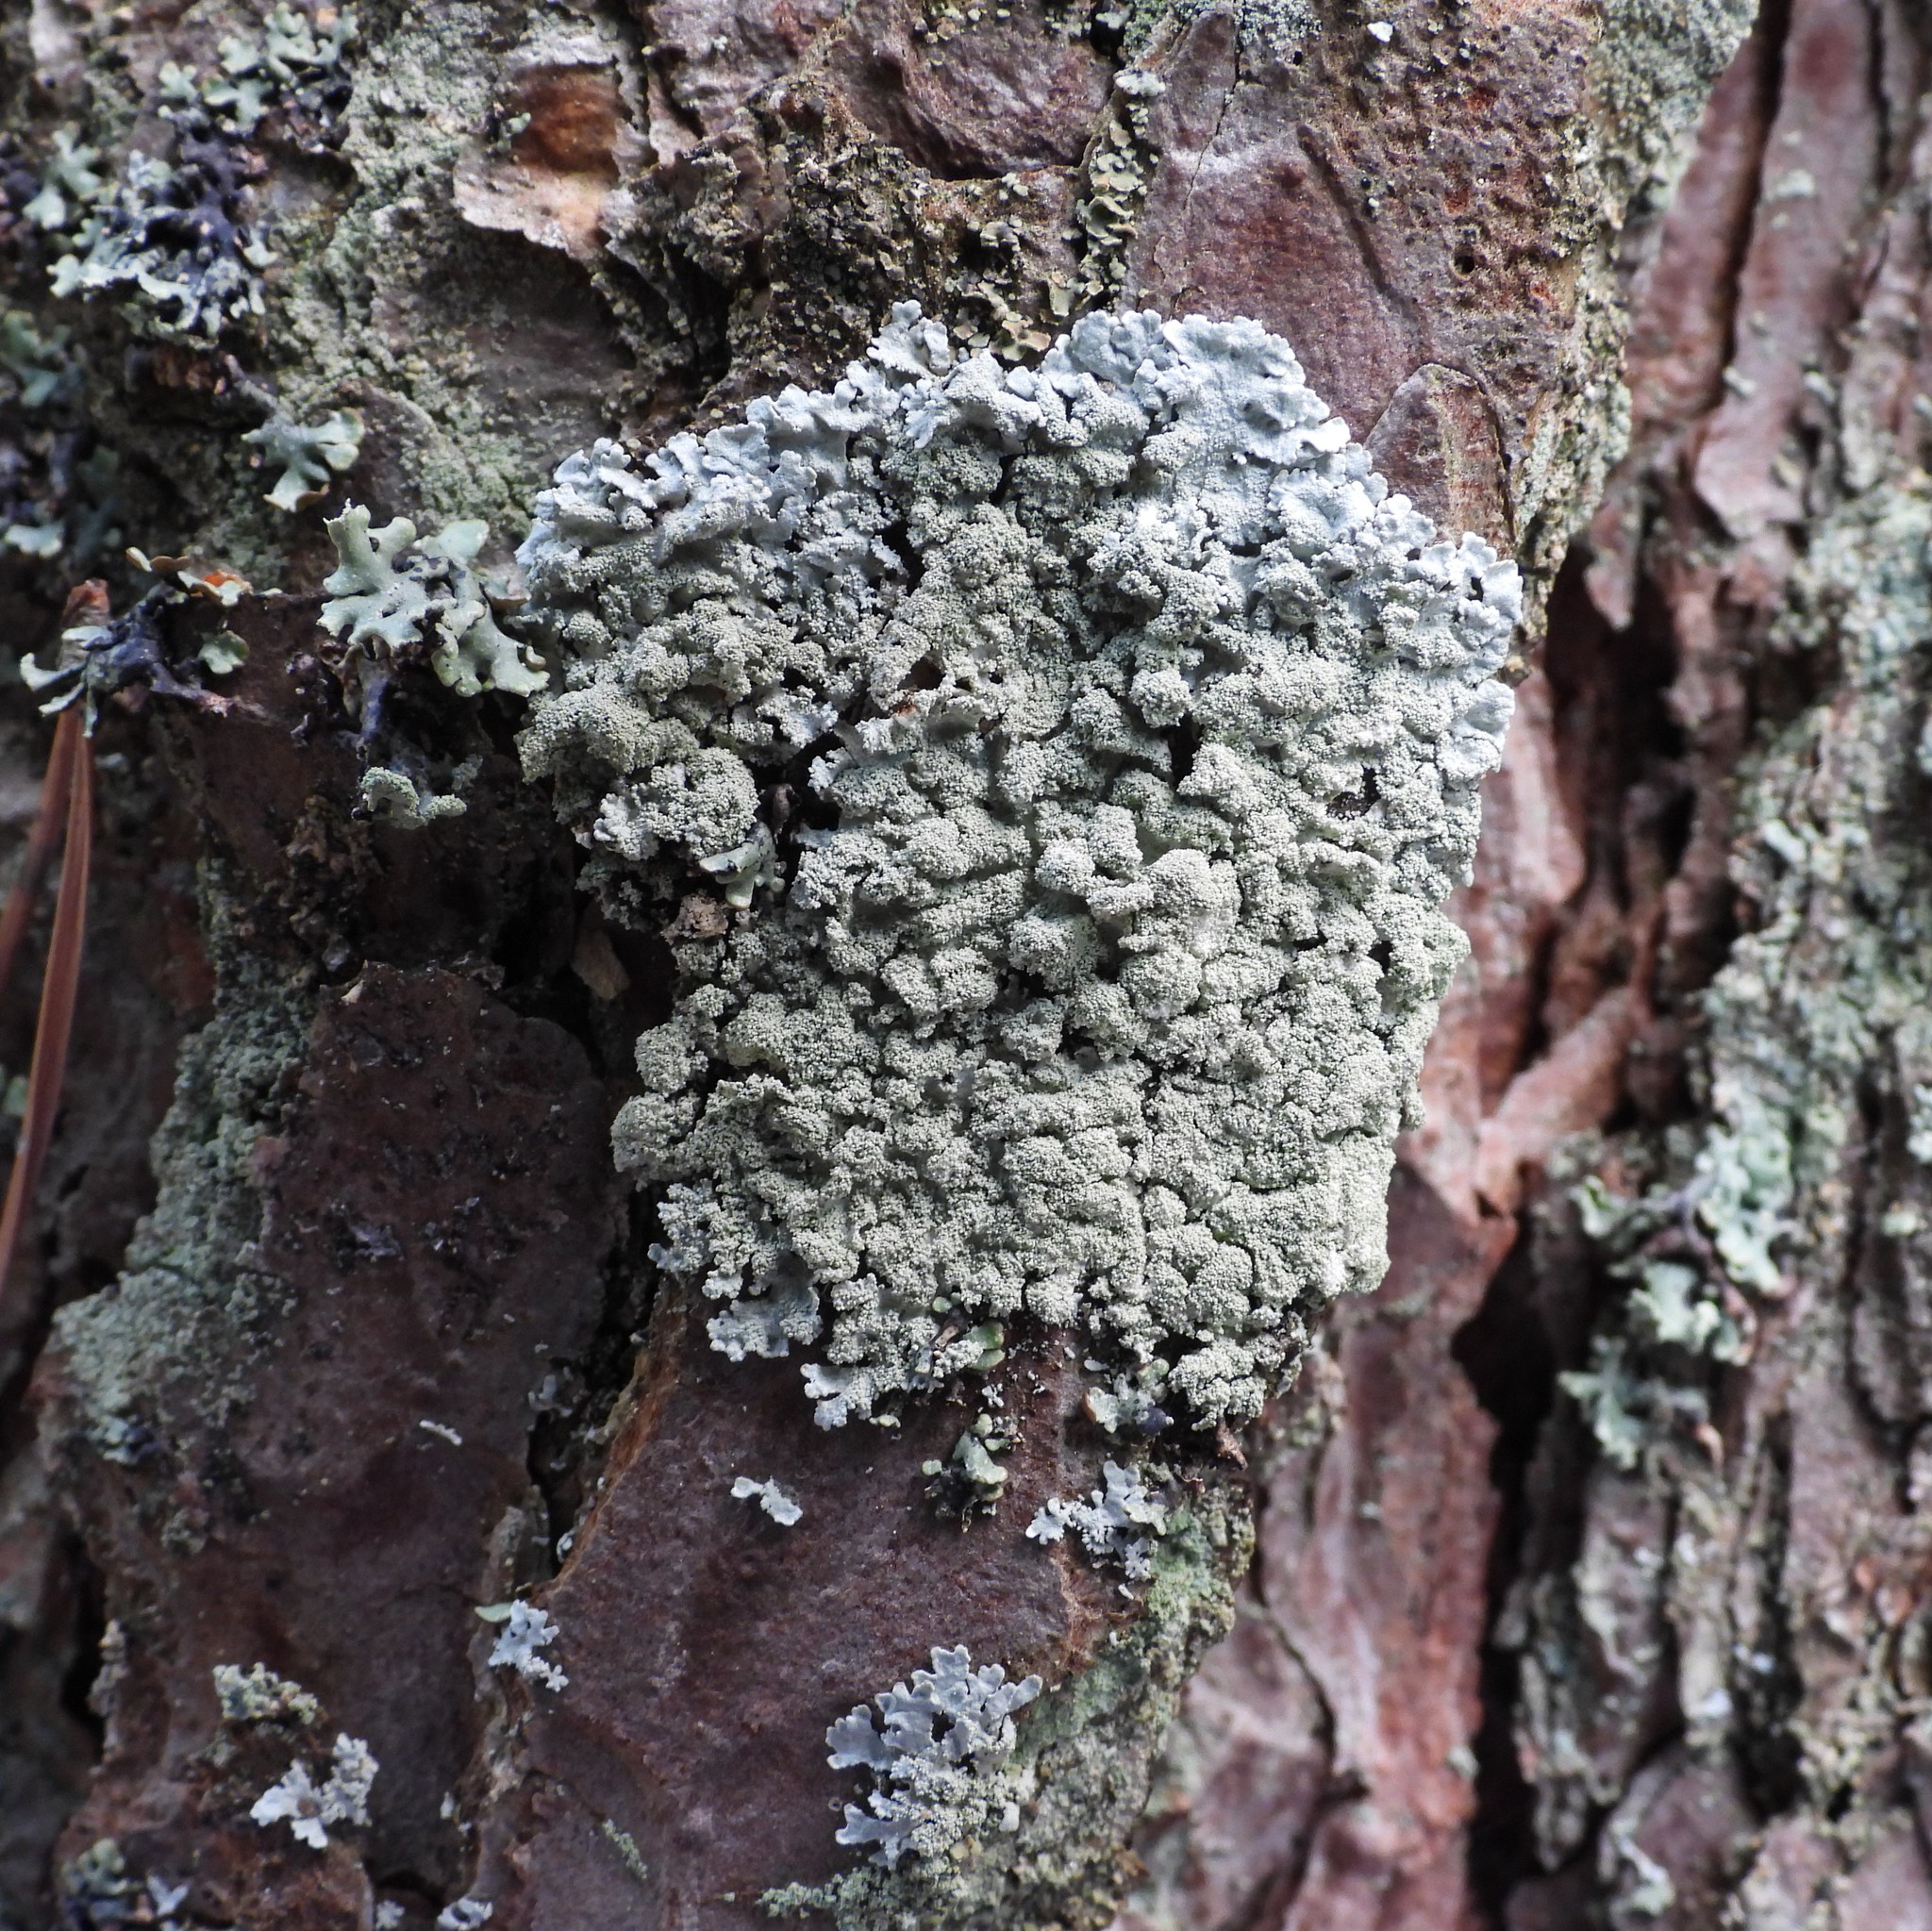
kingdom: Fungi
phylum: Ascomycota
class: Lecanoromycetes
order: Lecanorales
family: Parmeliaceae
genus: Imshaugia
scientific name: Imshaugia aleurites
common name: Salted starburst lichen
